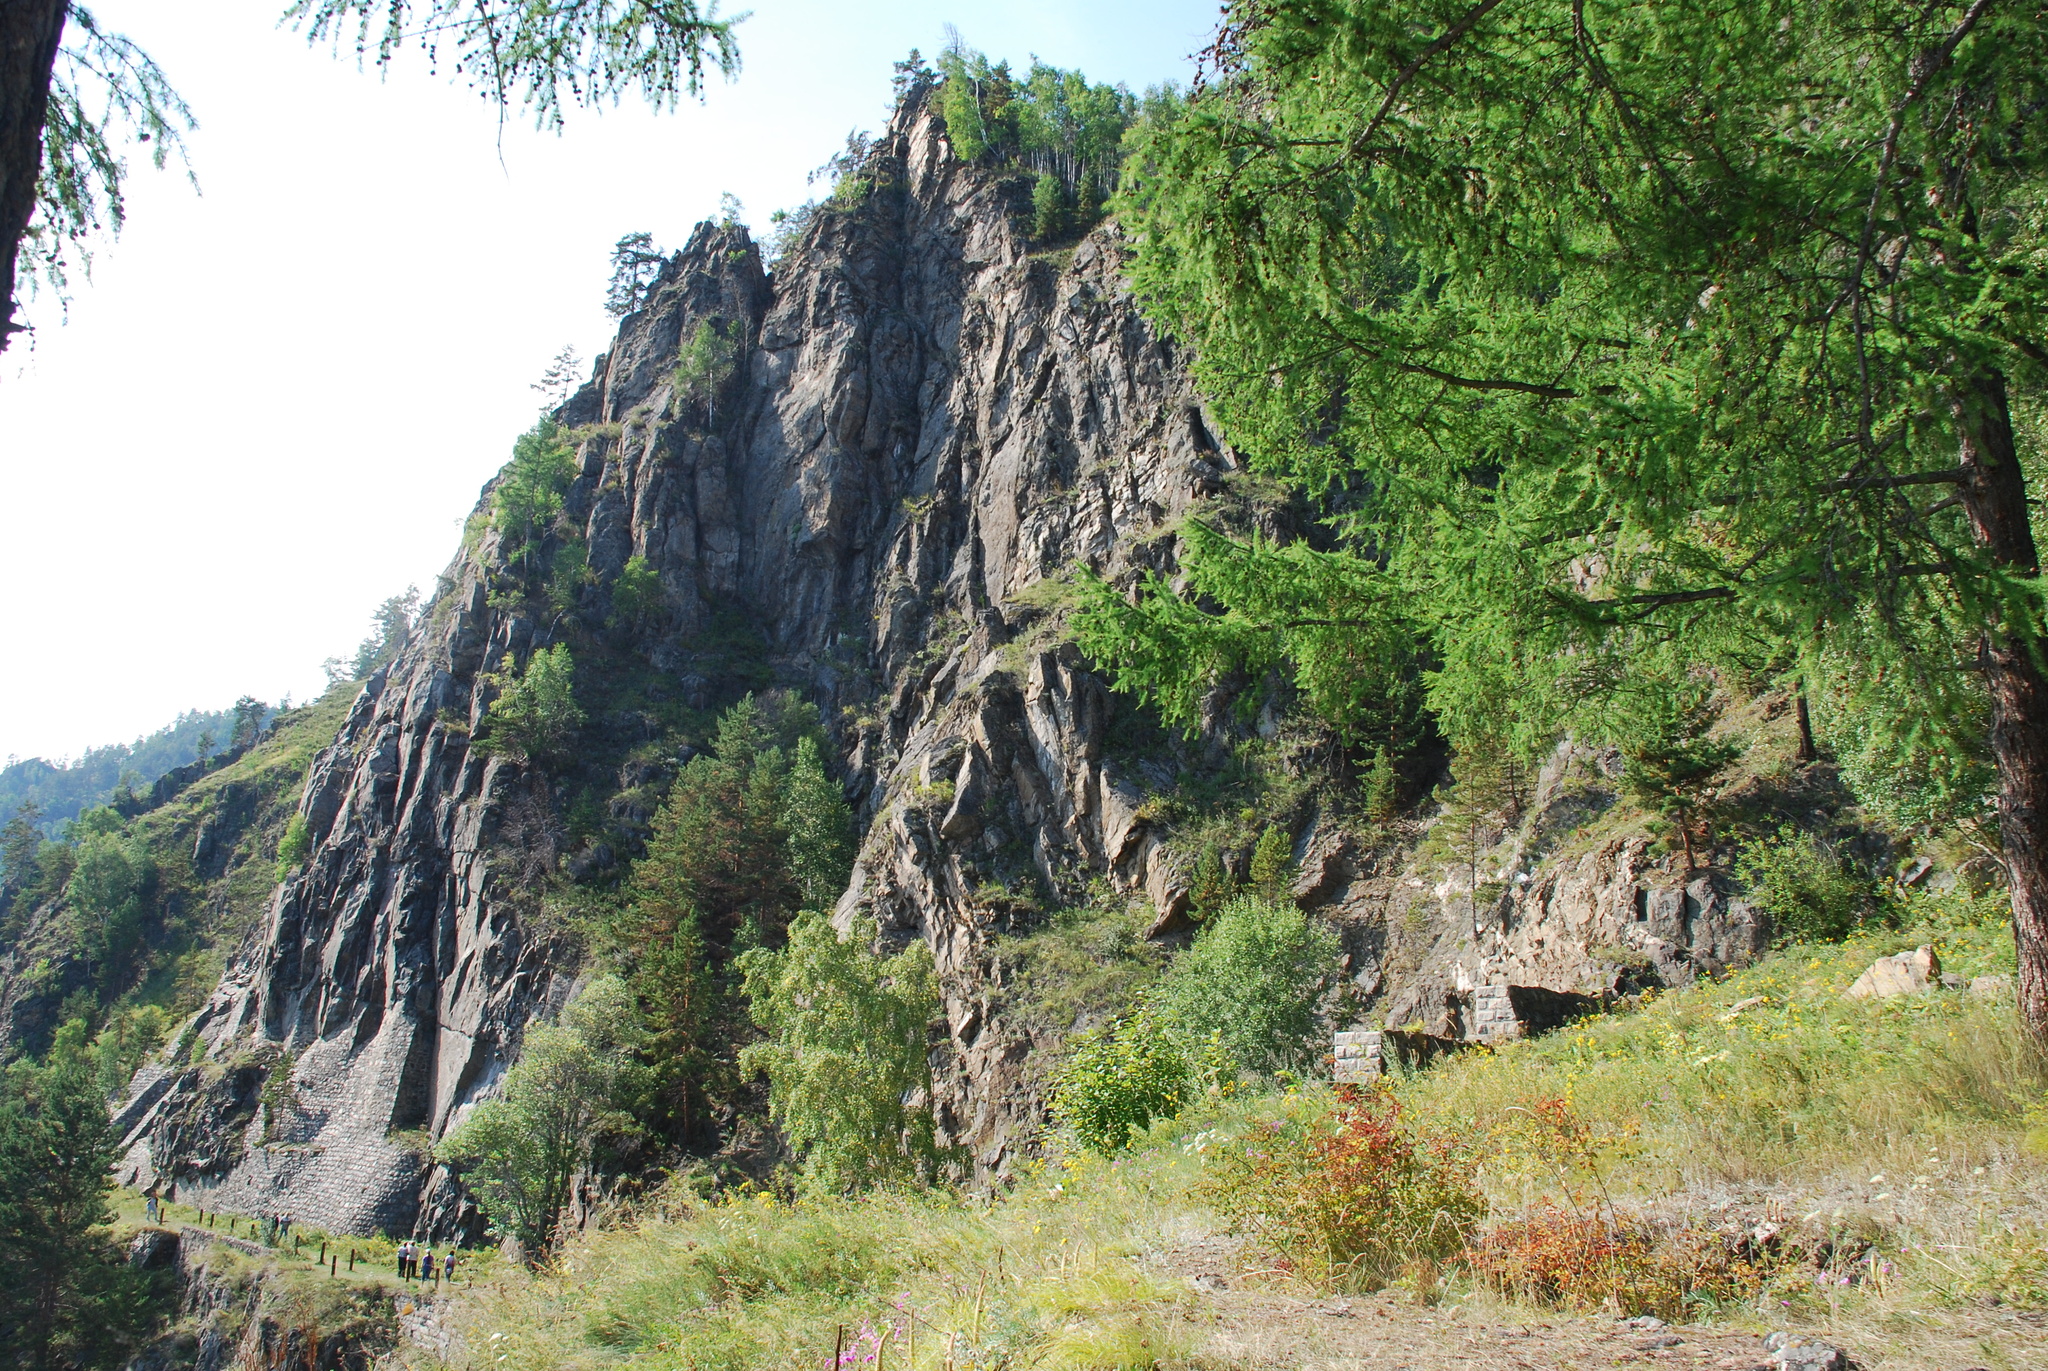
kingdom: Plantae
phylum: Tracheophyta
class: Pinopsida
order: Pinales
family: Pinaceae
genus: Larix
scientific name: Larix sibirica
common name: Siberian larch
